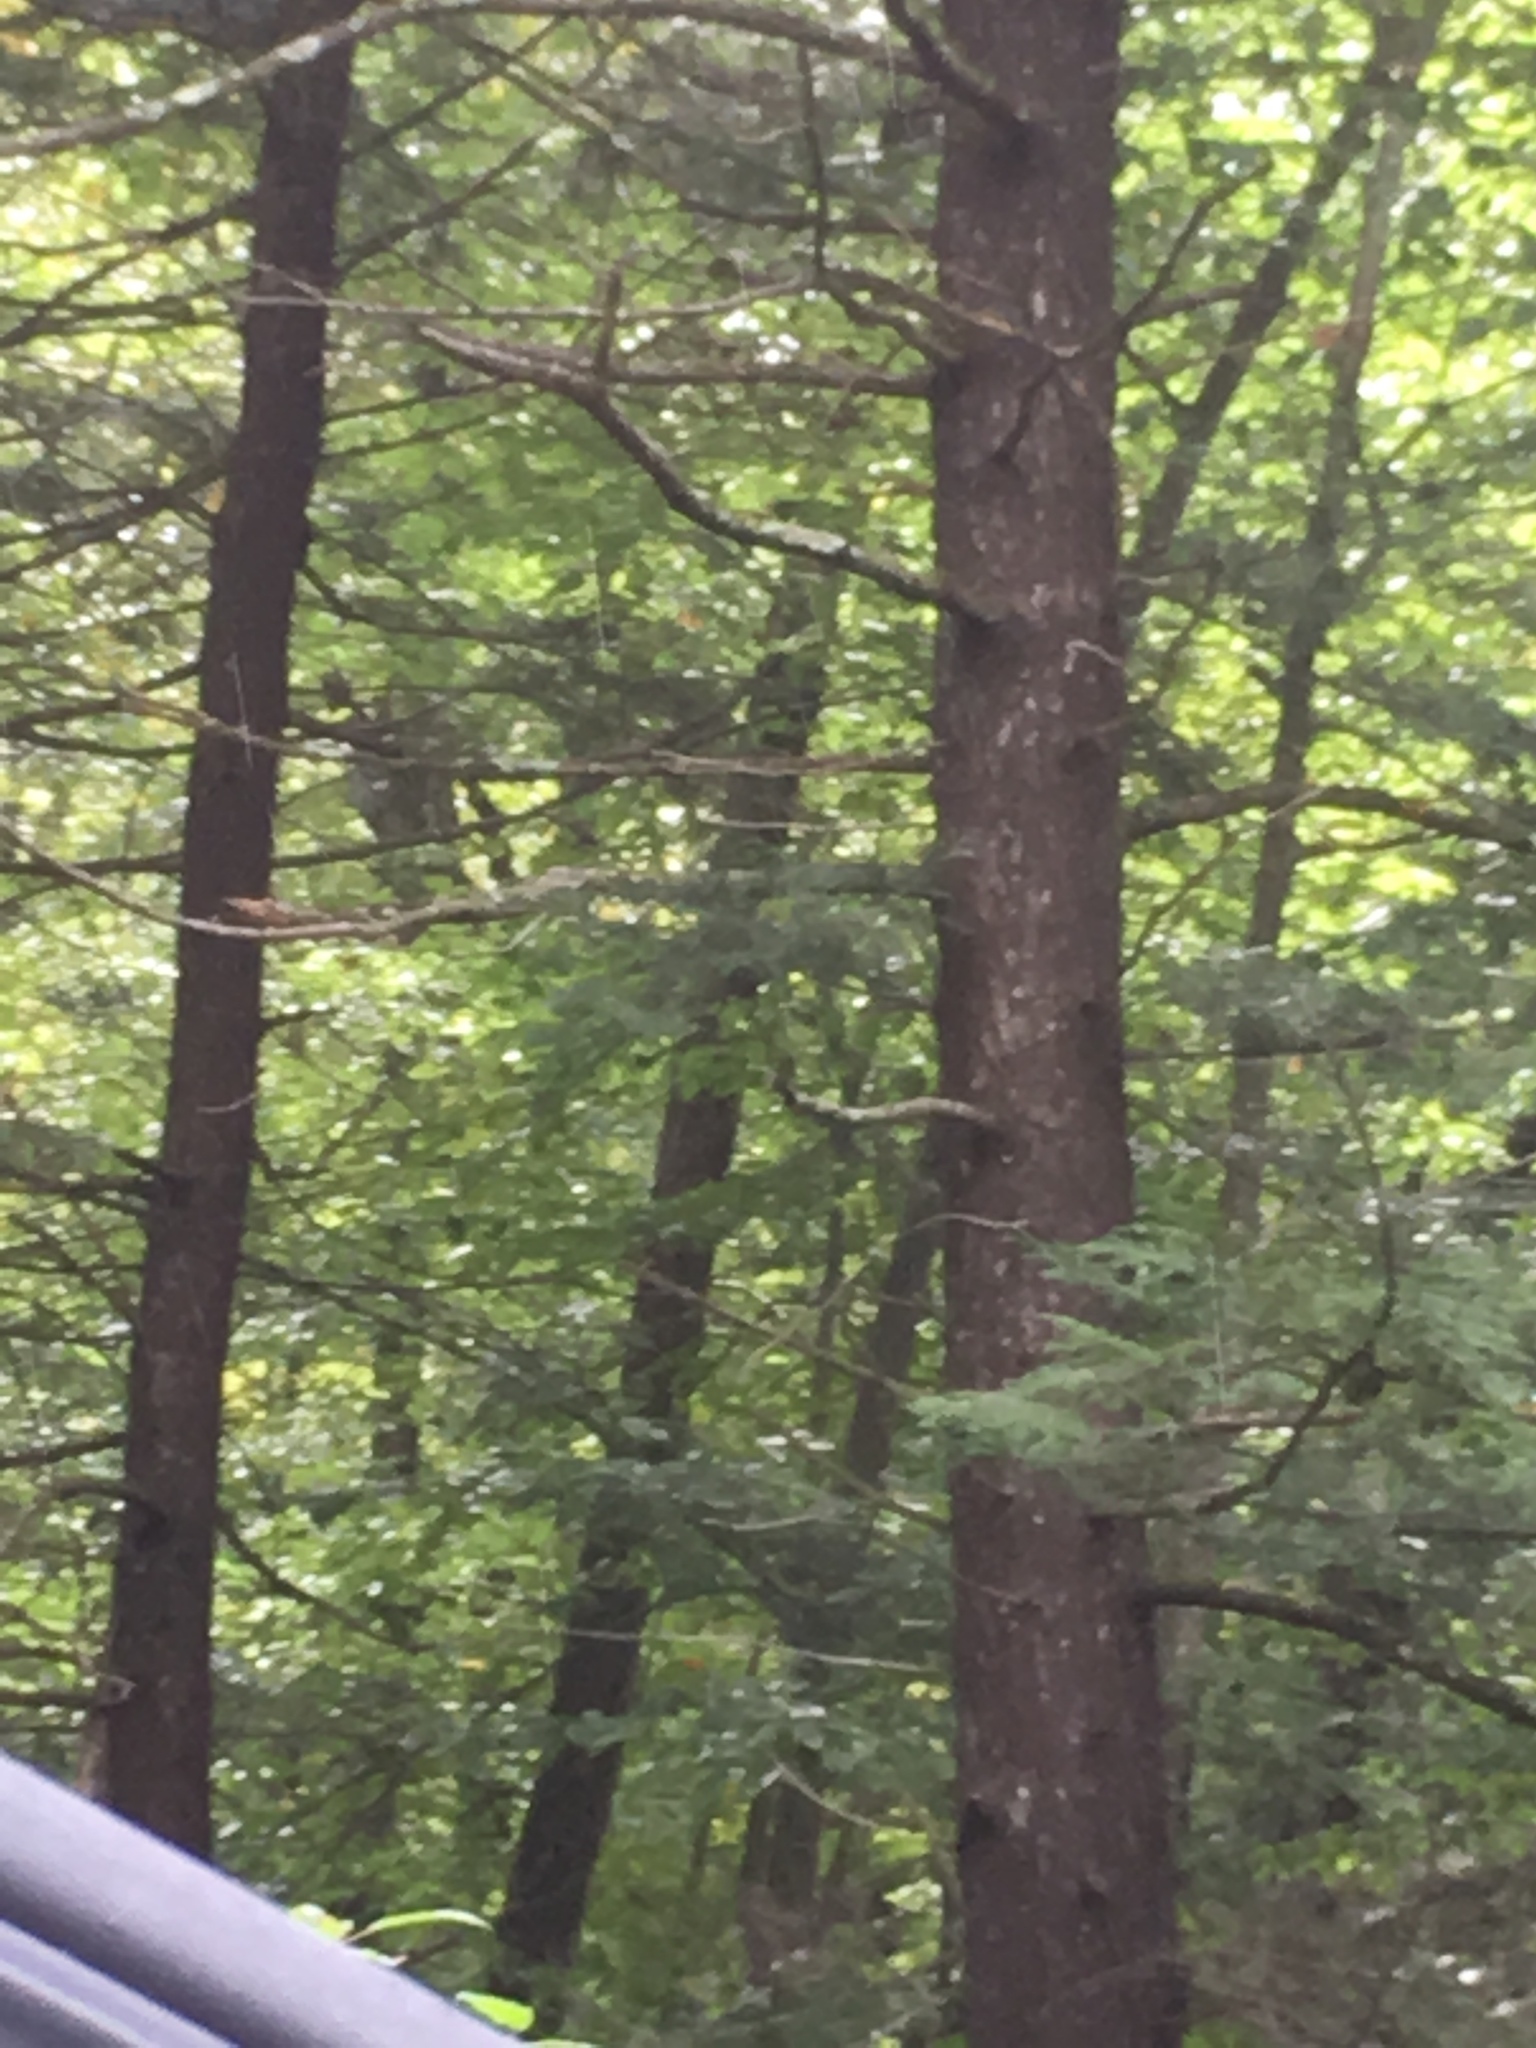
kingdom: Plantae
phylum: Tracheophyta
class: Pinopsida
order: Pinales
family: Pinaceae
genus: Tsuga
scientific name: Tsuga canadensis
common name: Eastern hemlock
